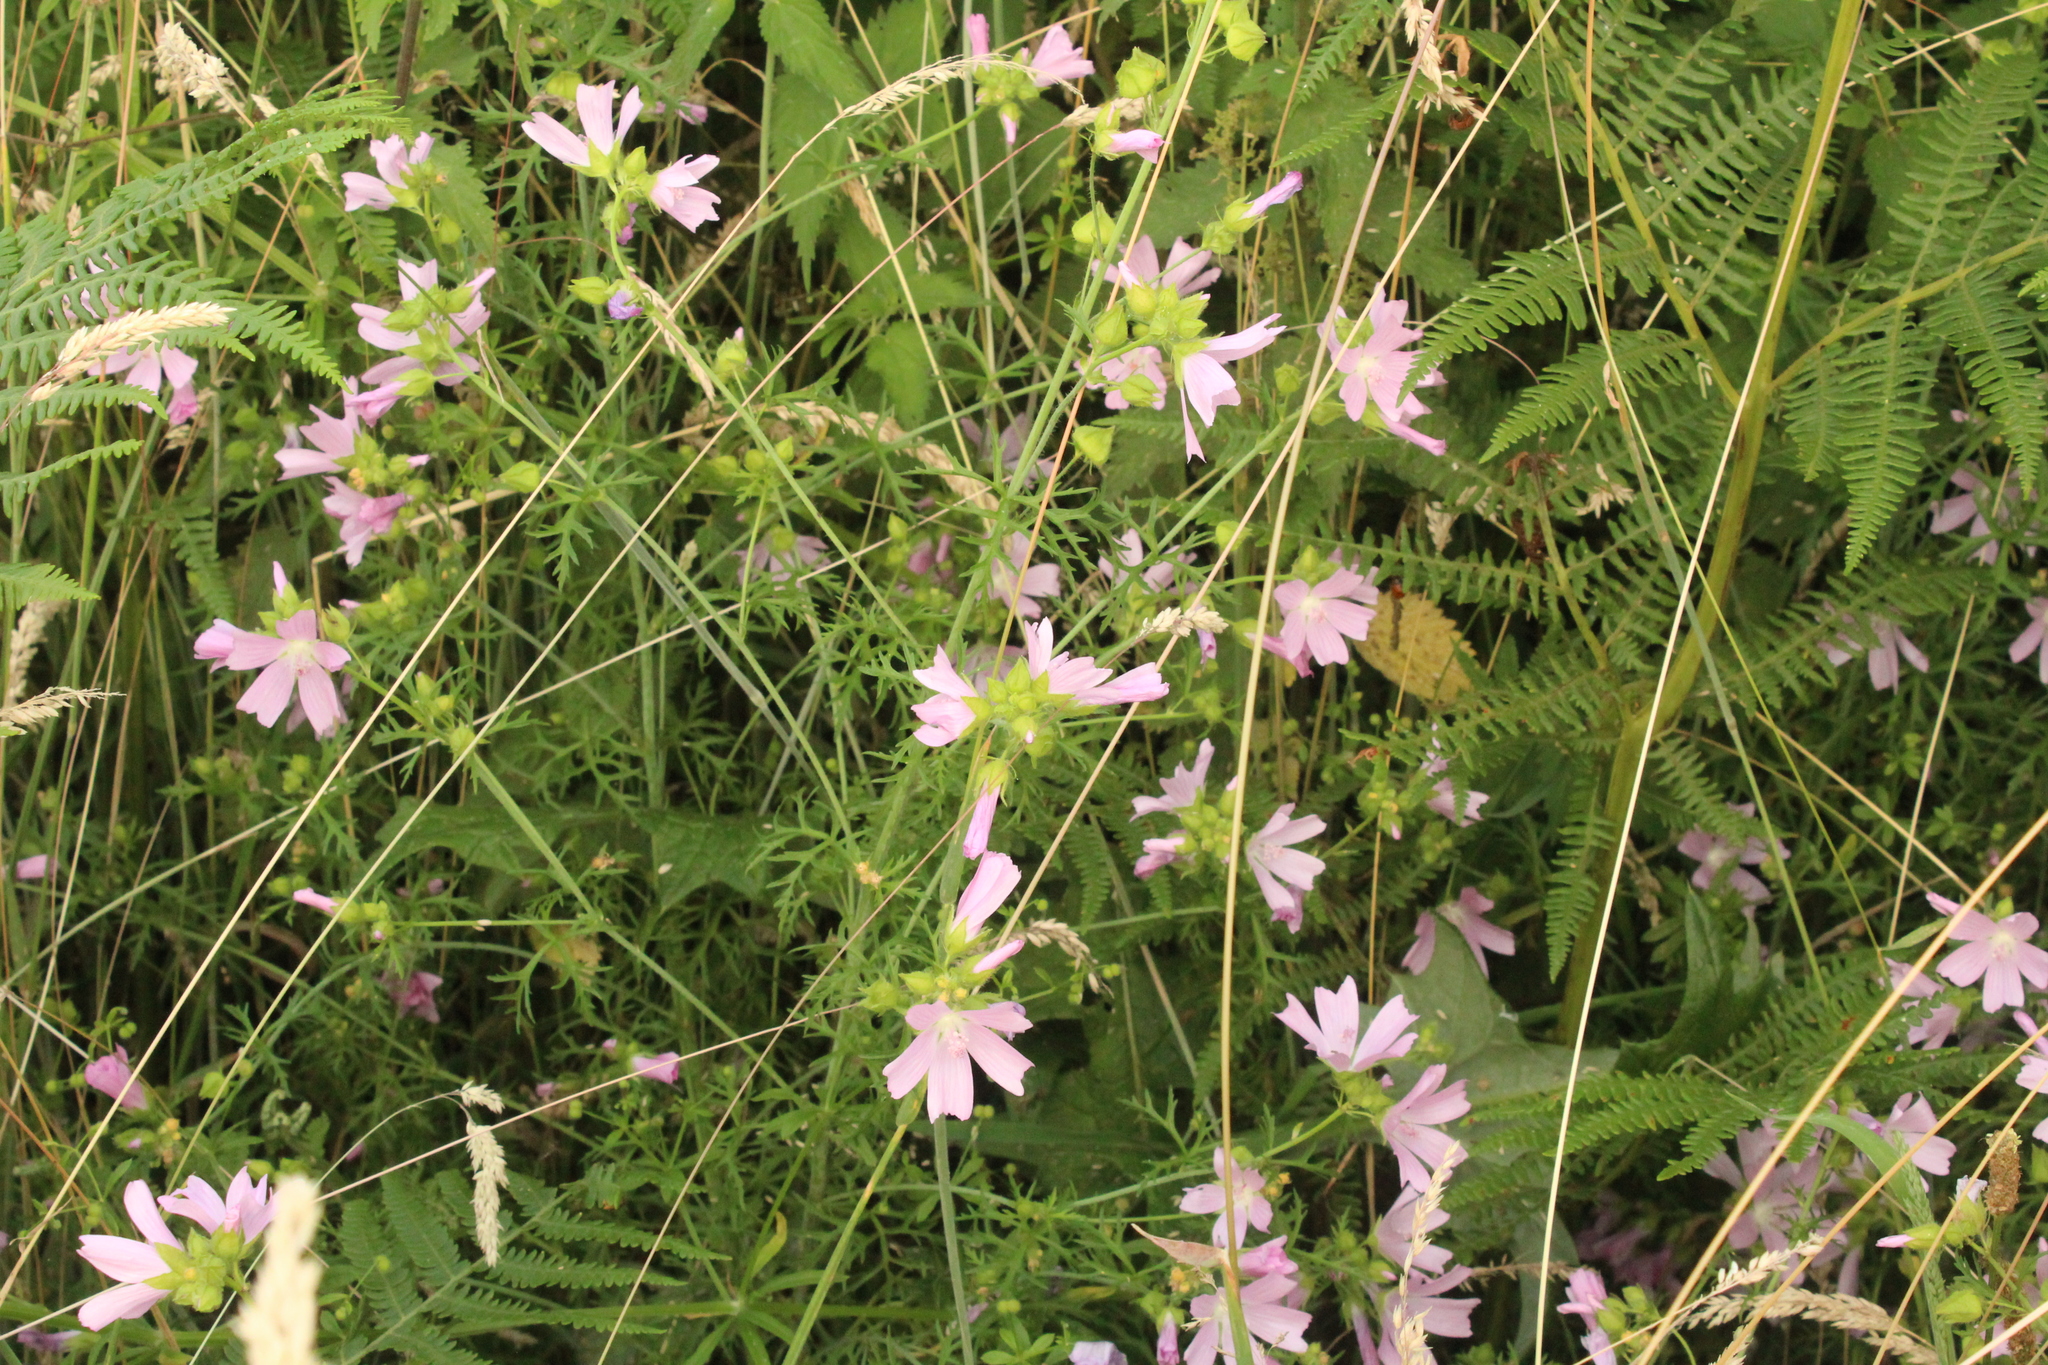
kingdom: Plantae
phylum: Tracheophyta
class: Magnoliopsida
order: Malvales
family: Malvaceae
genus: Malva
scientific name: Malva moschata
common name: Musk mallow
